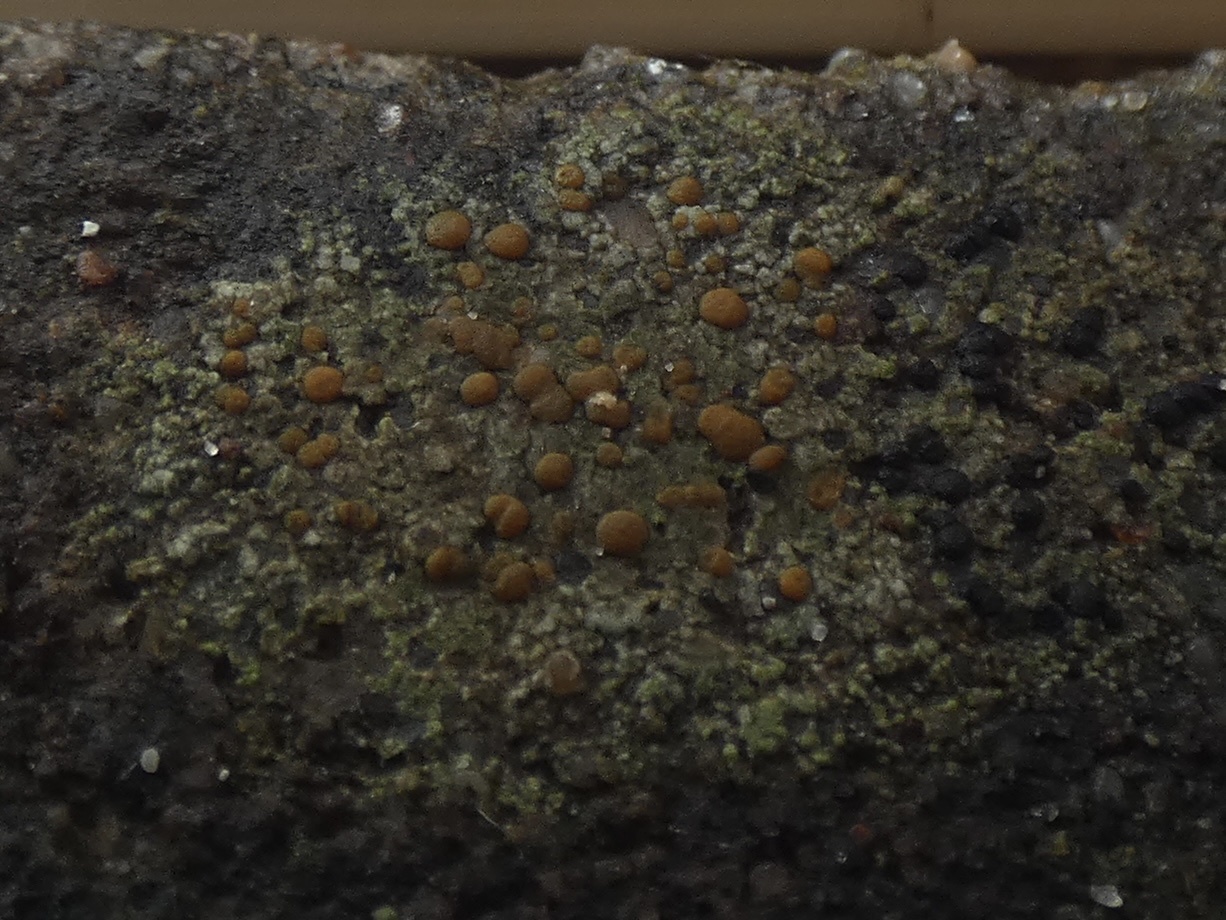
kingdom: Fungi
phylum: Ascomycota
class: Lecanoromycetes
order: Lecanorales
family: Psoraceae
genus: Protoblastenia
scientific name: Protoblastenia rupestris
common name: Chewing gum lichen
